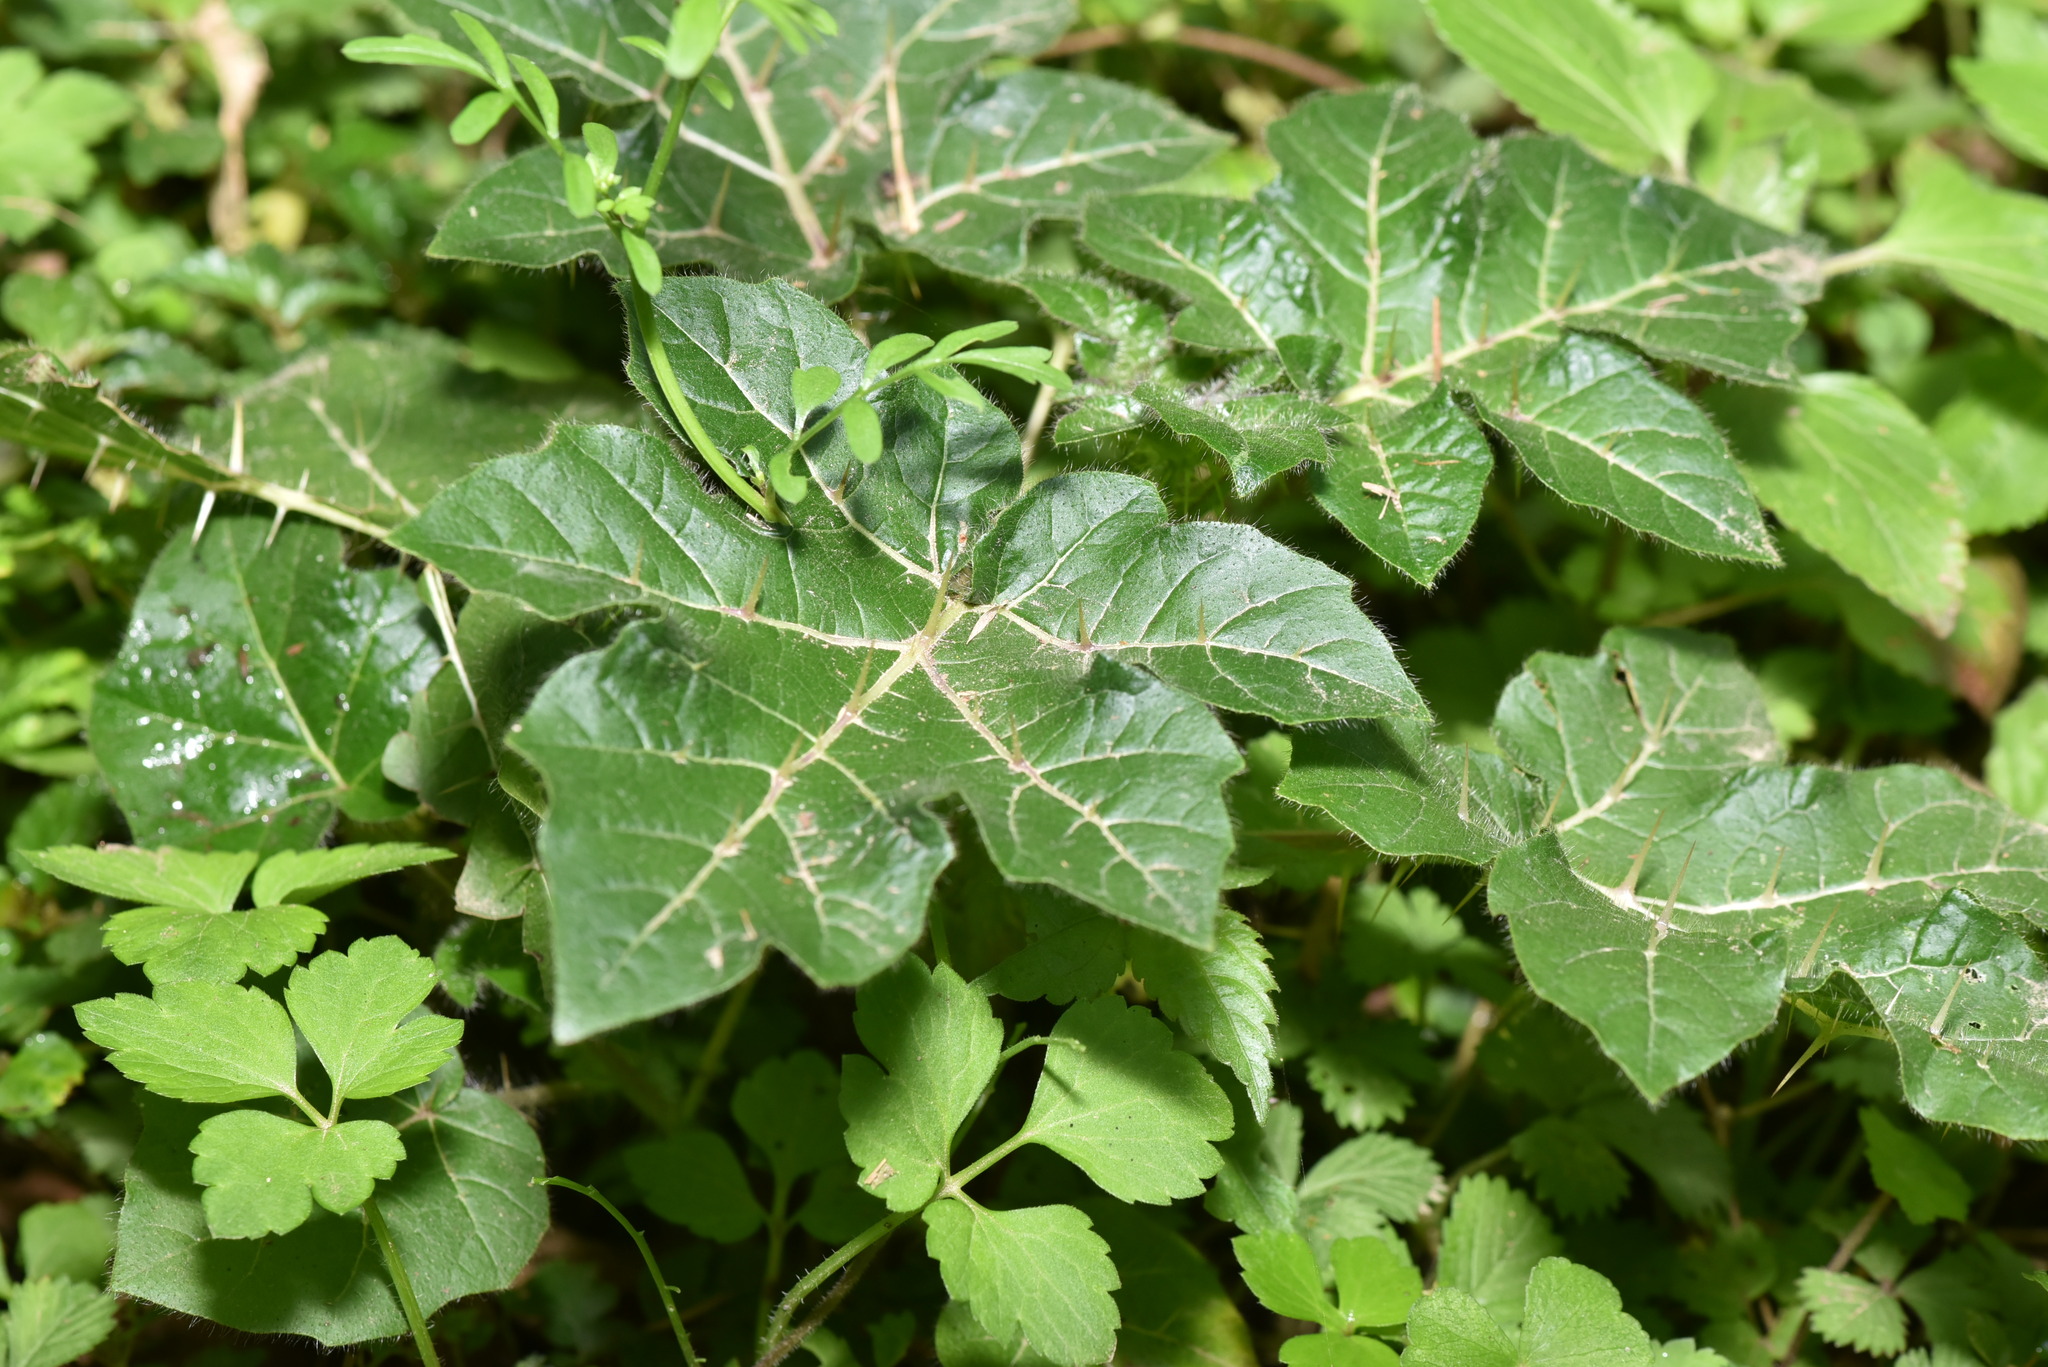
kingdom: Plantae
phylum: Tracheophyta
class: Magnoliopsida
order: Solanales
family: Solanaceae
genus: Solanum
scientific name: Solanum capsicoides
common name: Cockroach berry
